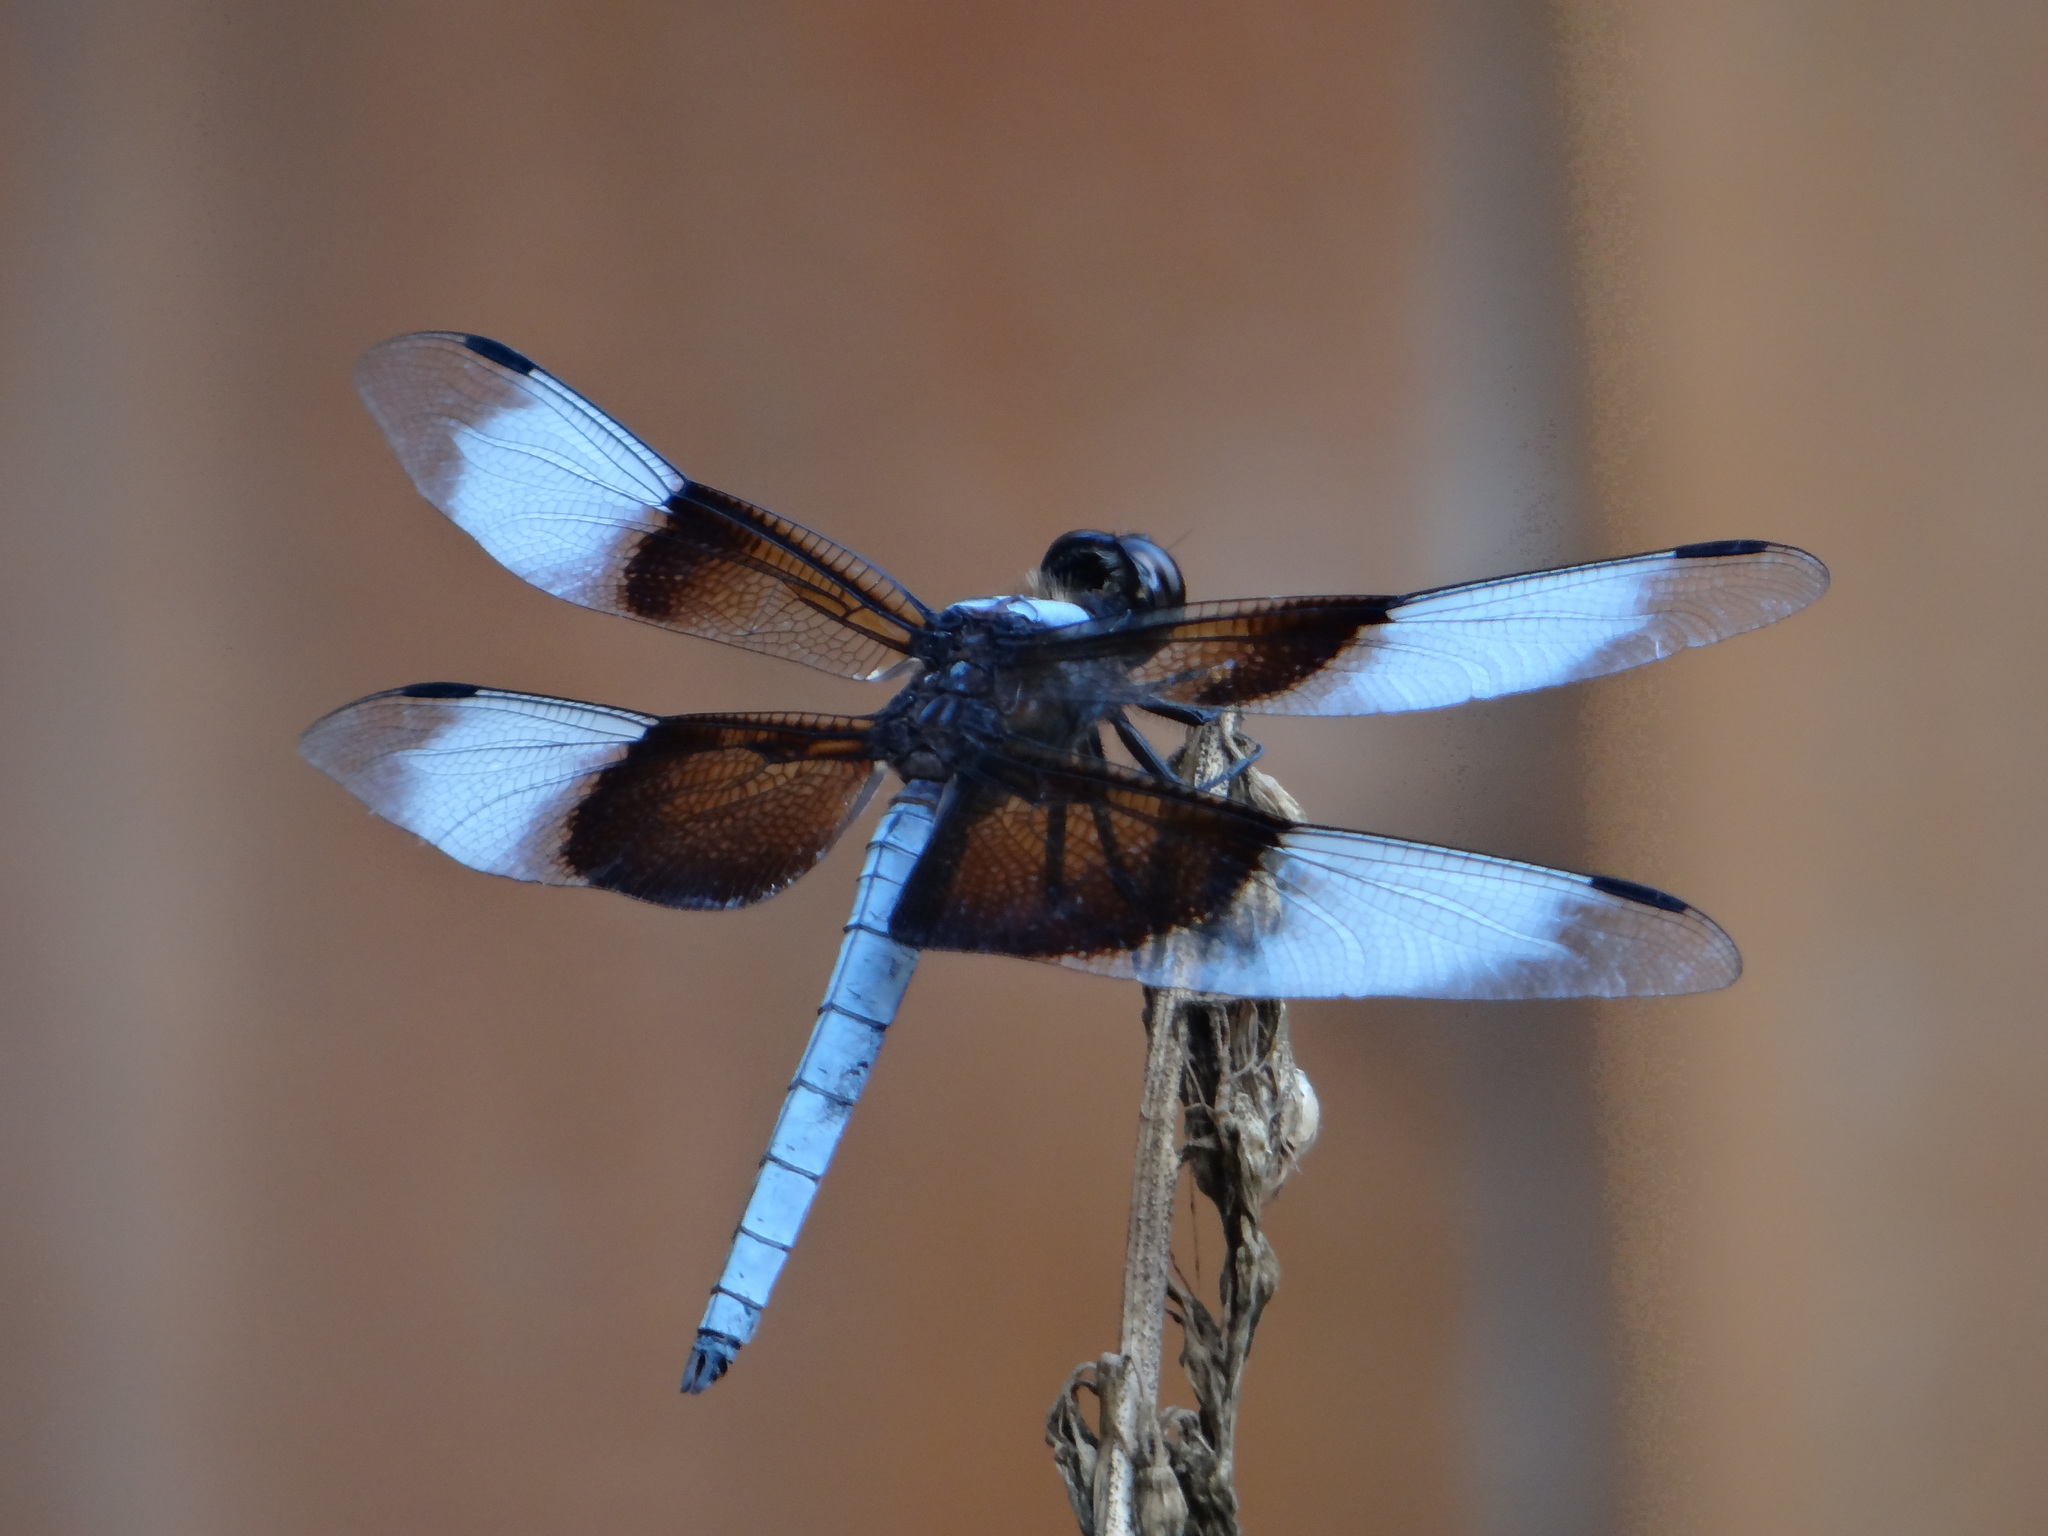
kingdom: Animalia
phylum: Arthropoda
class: Insecta
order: Odonata
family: Libellulidae
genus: Libellula
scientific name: Libellula luctuosa
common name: Widow skimmer
